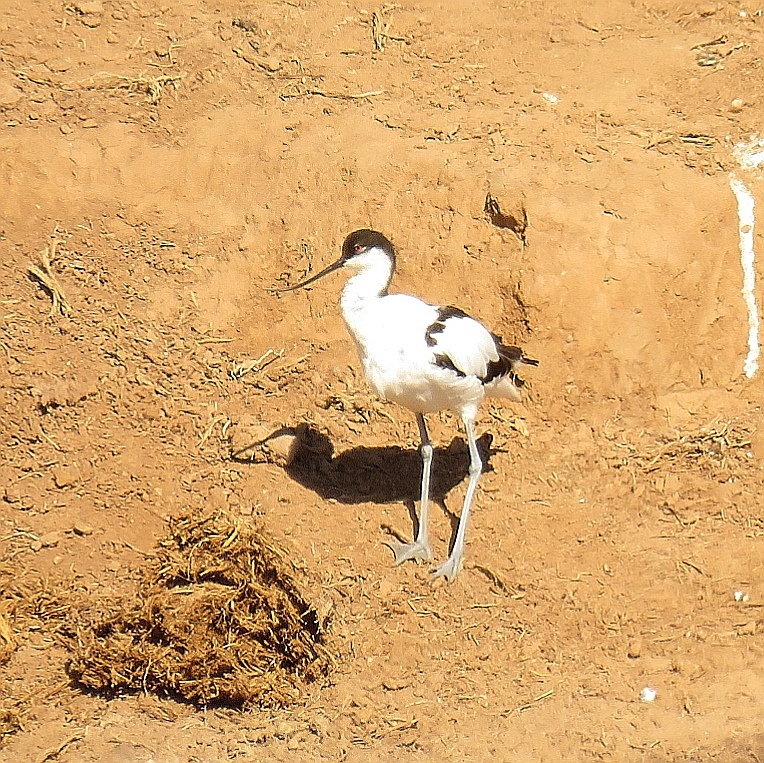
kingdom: Animalia
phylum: Chordata
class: Aves
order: Charadriiformes
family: Recurvirostridae
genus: Recurvirostra
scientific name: Recurvirostra avosetta
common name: Pied avocet
